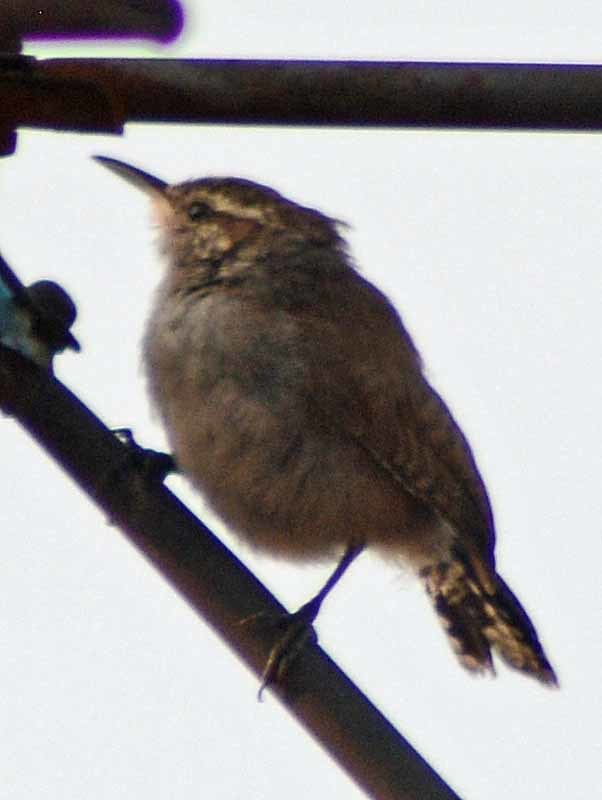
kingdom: Animalia
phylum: Chordata
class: Aves
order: Passeriformes
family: Troglodytidae
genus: Thryomanes
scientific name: Thryomanes bewickii
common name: Bewick's wren
